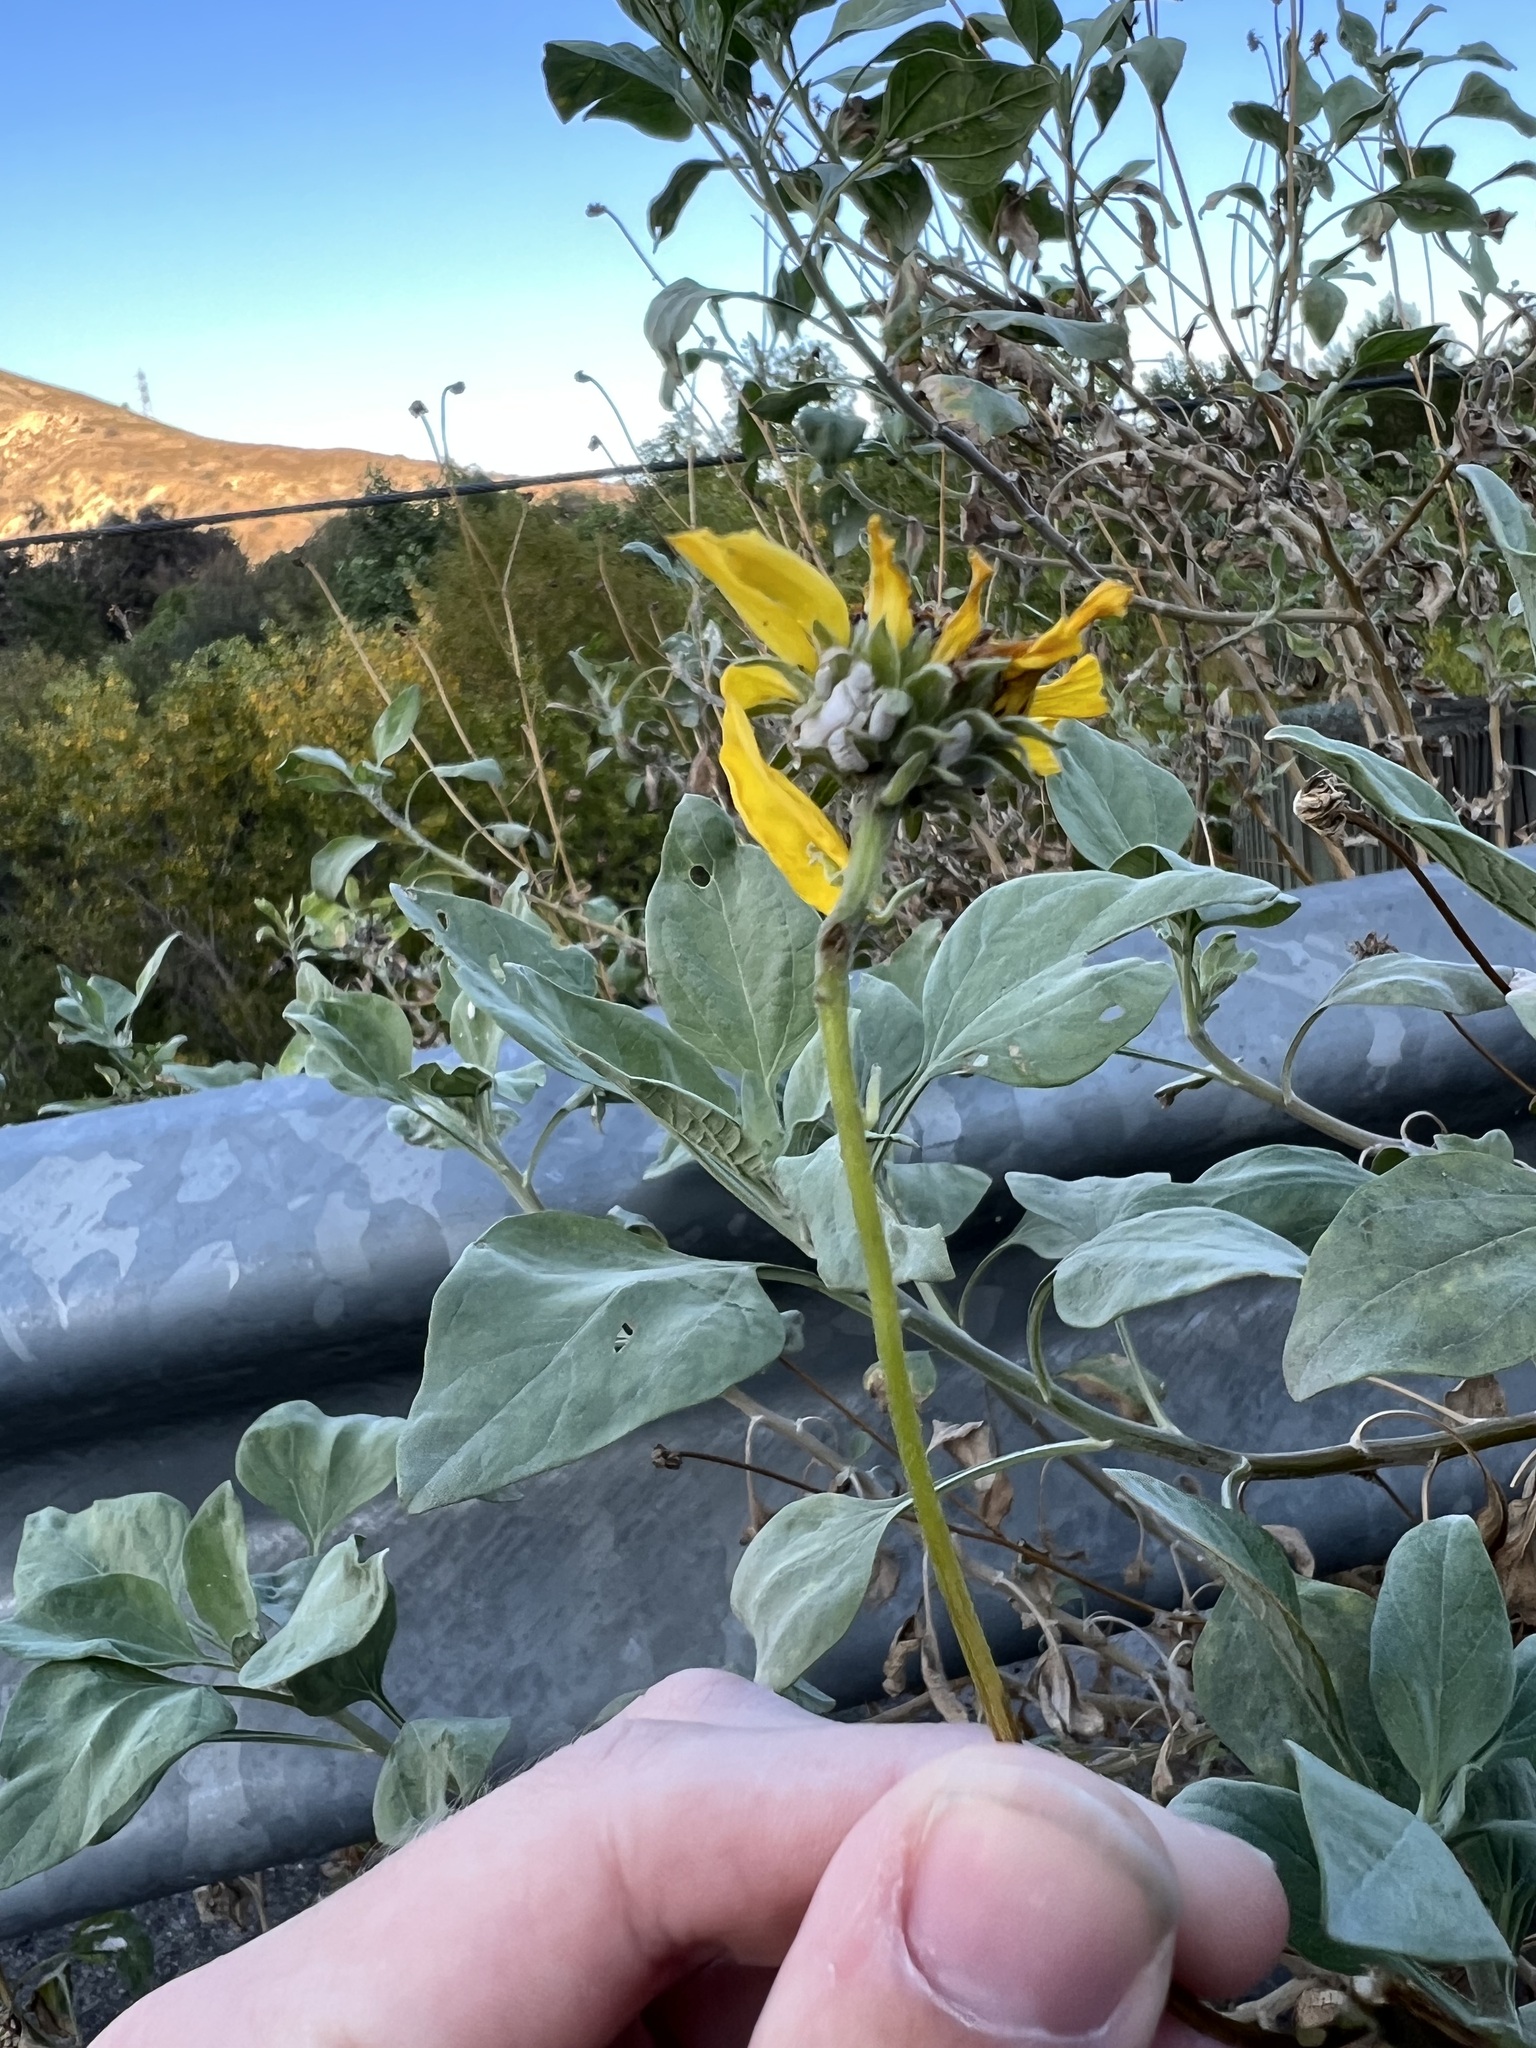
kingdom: Plantae
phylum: Tracheophyta
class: Magnoliopsida
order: Asterales
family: Asteraceae
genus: Encelia
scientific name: Encelia
